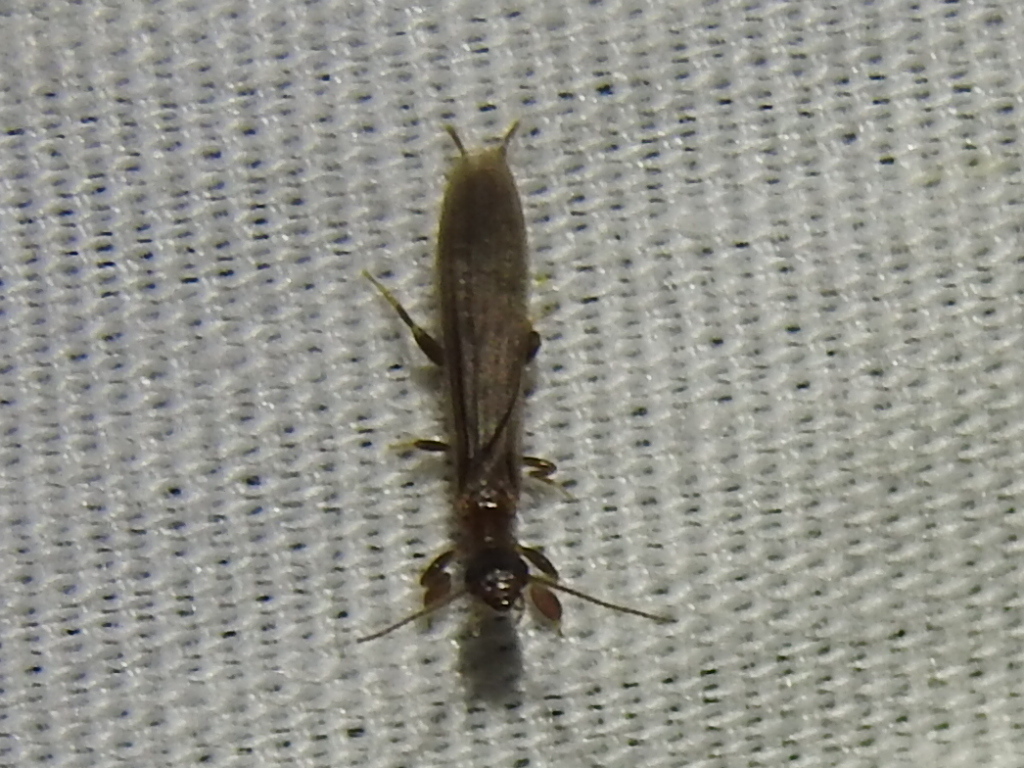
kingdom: Animalia
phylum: Arthropoda
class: Insecta
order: Embioptera
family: Oligotomidae
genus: Oligotoma
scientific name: Oligotoma nigra
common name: Black webspinner
